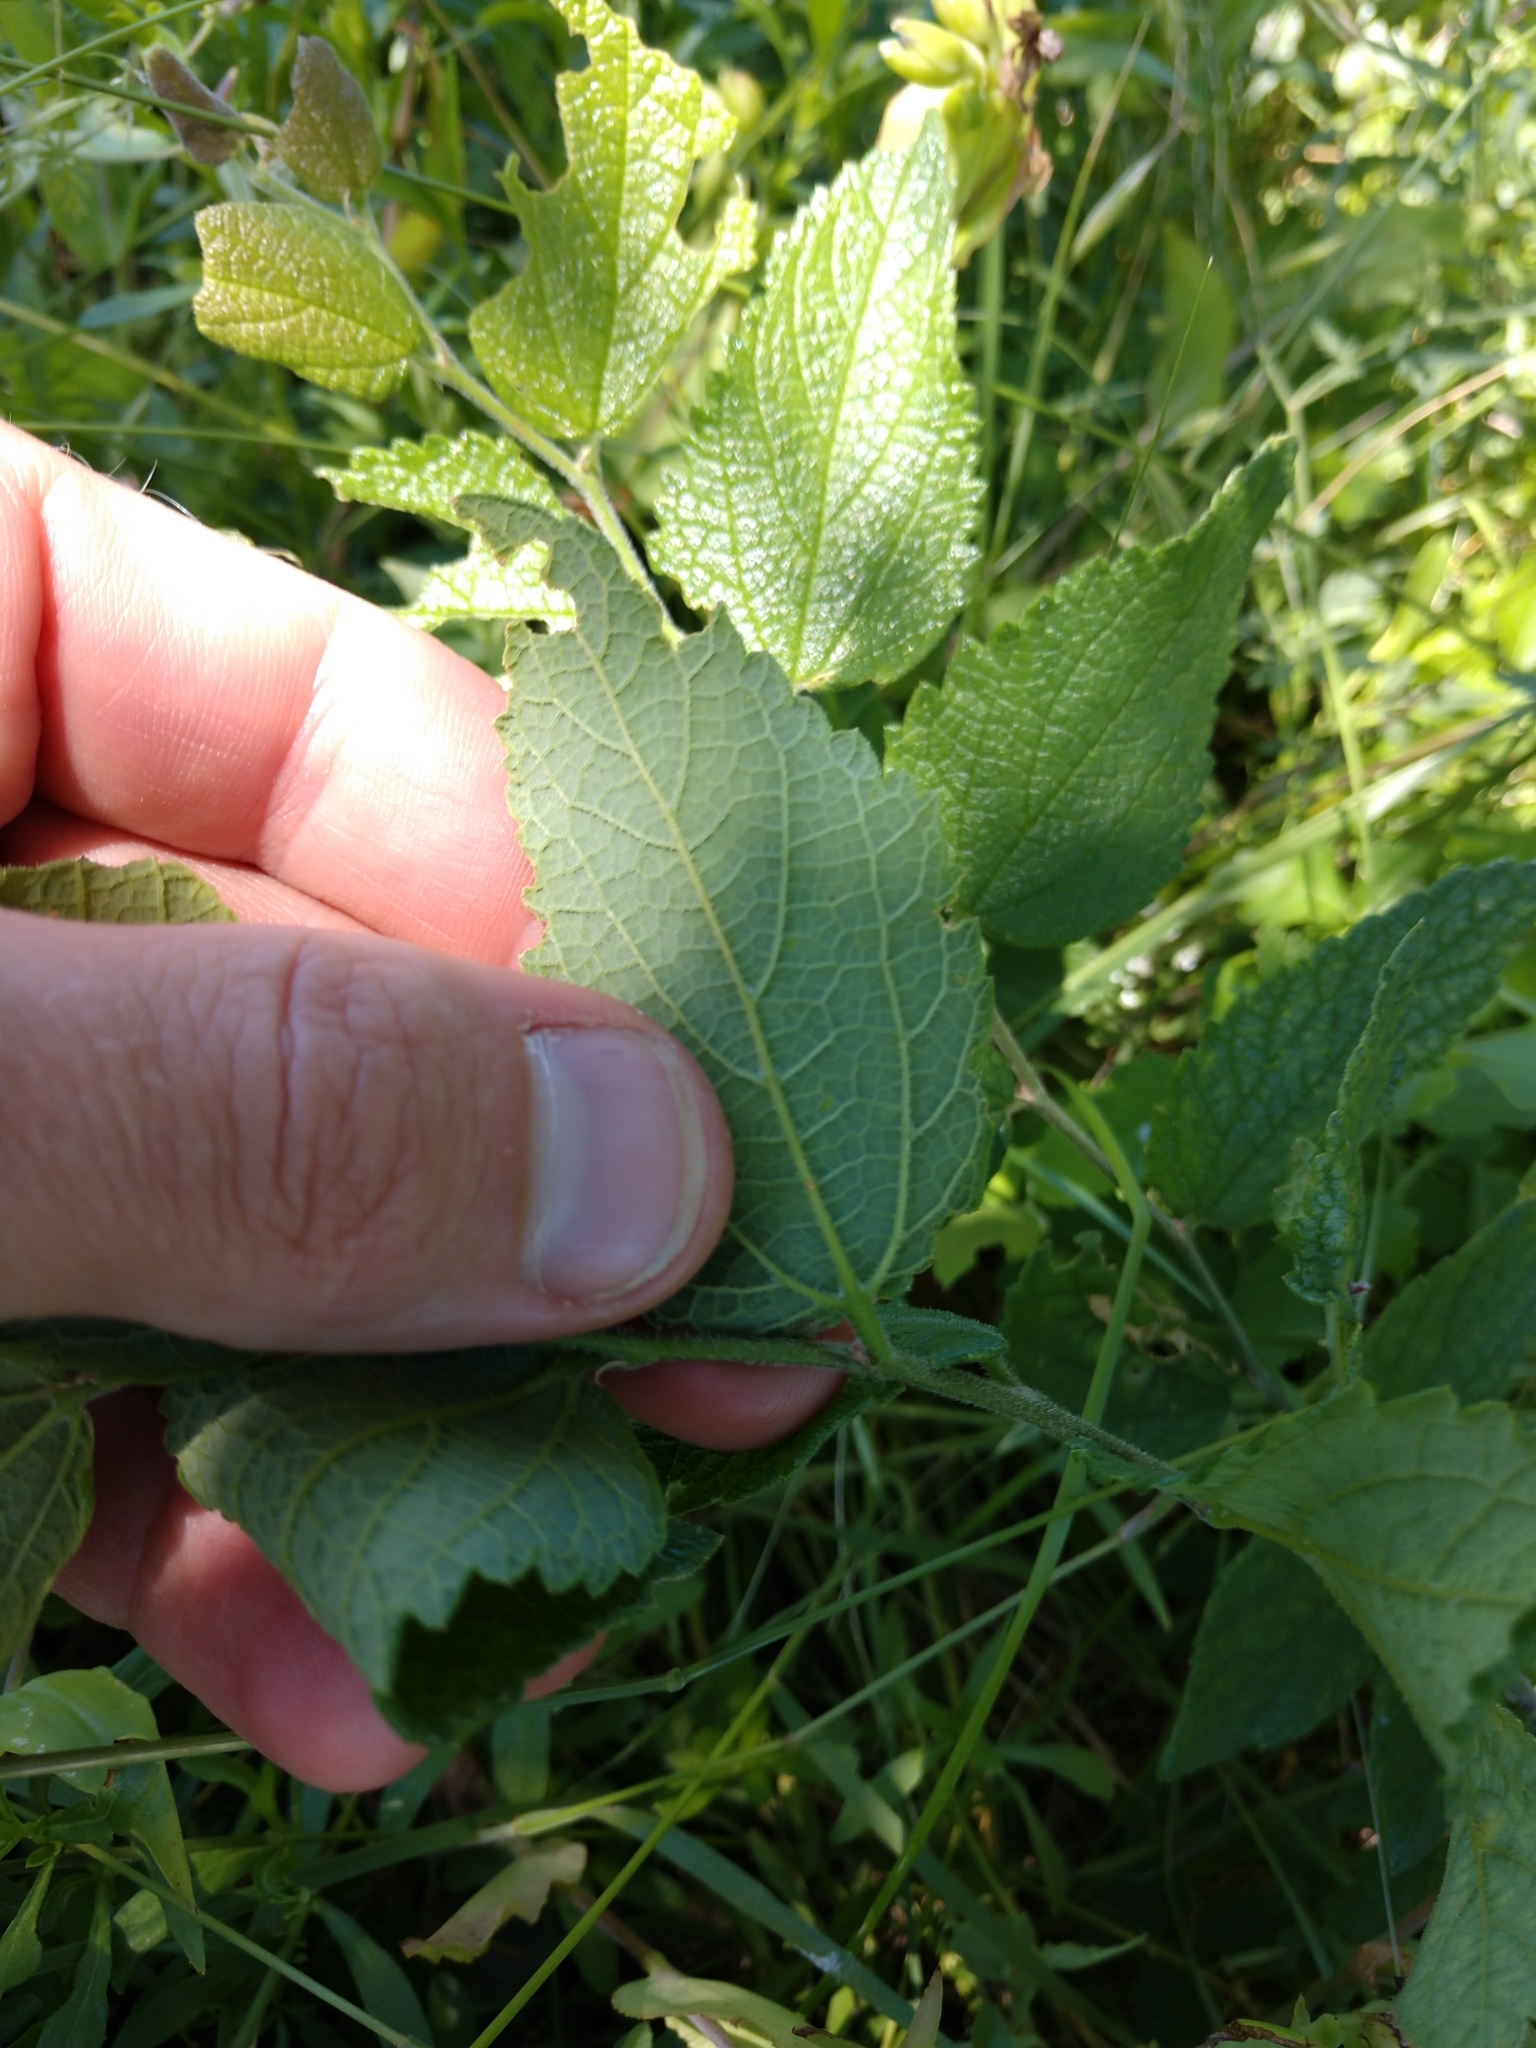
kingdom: Plantae
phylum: Tracheophyta
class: Magnoliopsida
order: Rosales
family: Cannabaceae
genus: Celtis
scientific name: Celtis reticulata
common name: Netleaf hackberry
